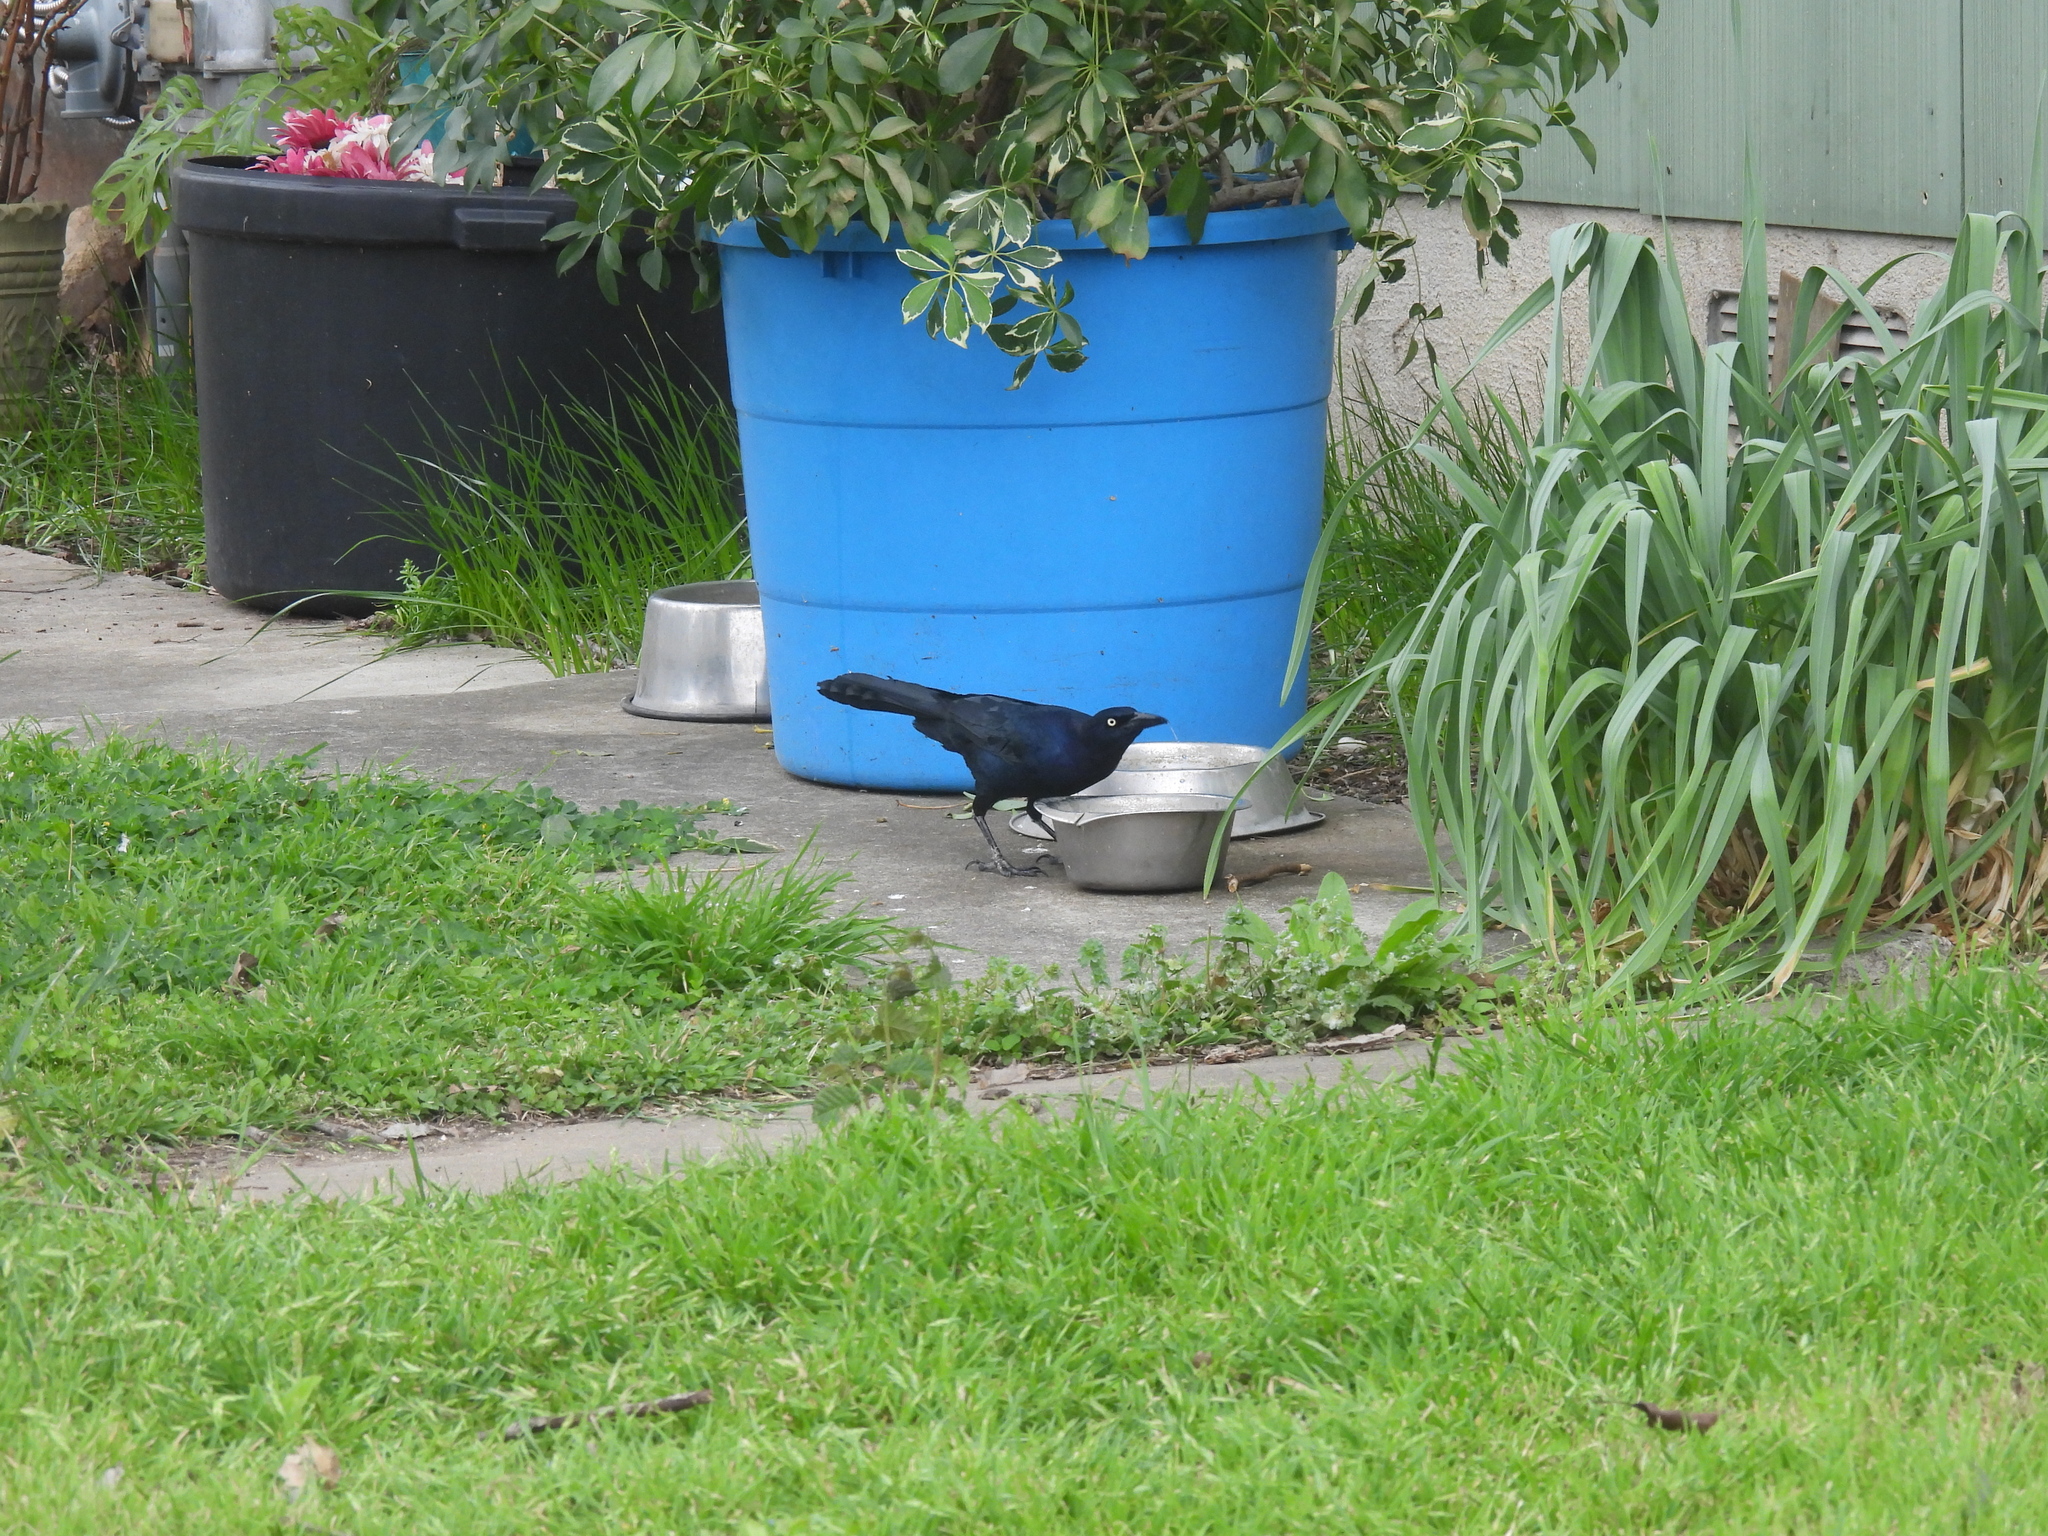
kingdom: Animalia
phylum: Chordata
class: Aves
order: Passeriformes
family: Icteridae
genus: Quiscalus
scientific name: Quiscalus mexicanus
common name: Great-tailed grackle
